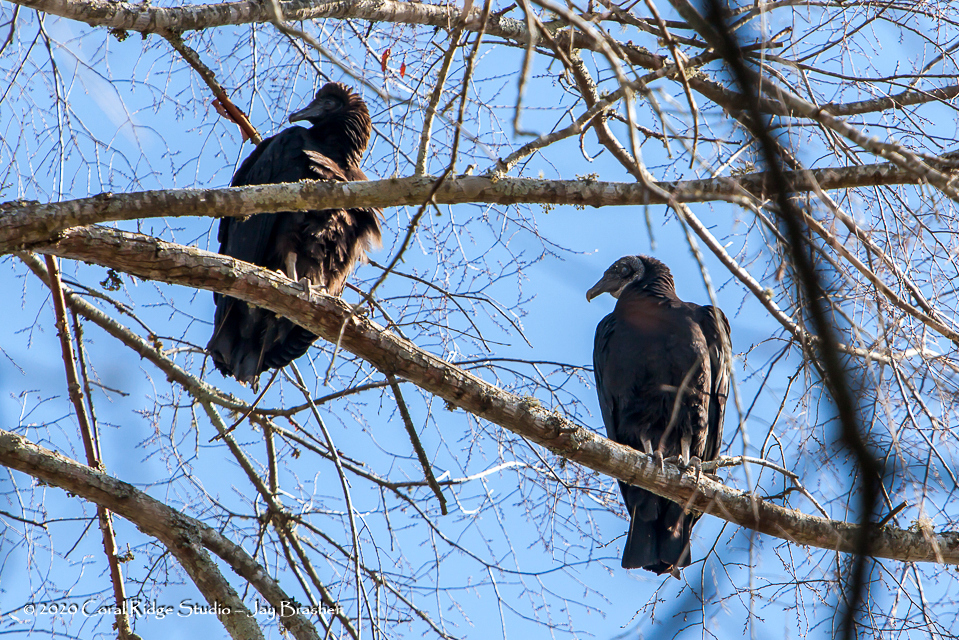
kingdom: Animalia
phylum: Chordata
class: Aves
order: Accipitriformes
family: Cathartidae
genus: Coragyps
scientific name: Coragyps atratus
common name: Black vulture
